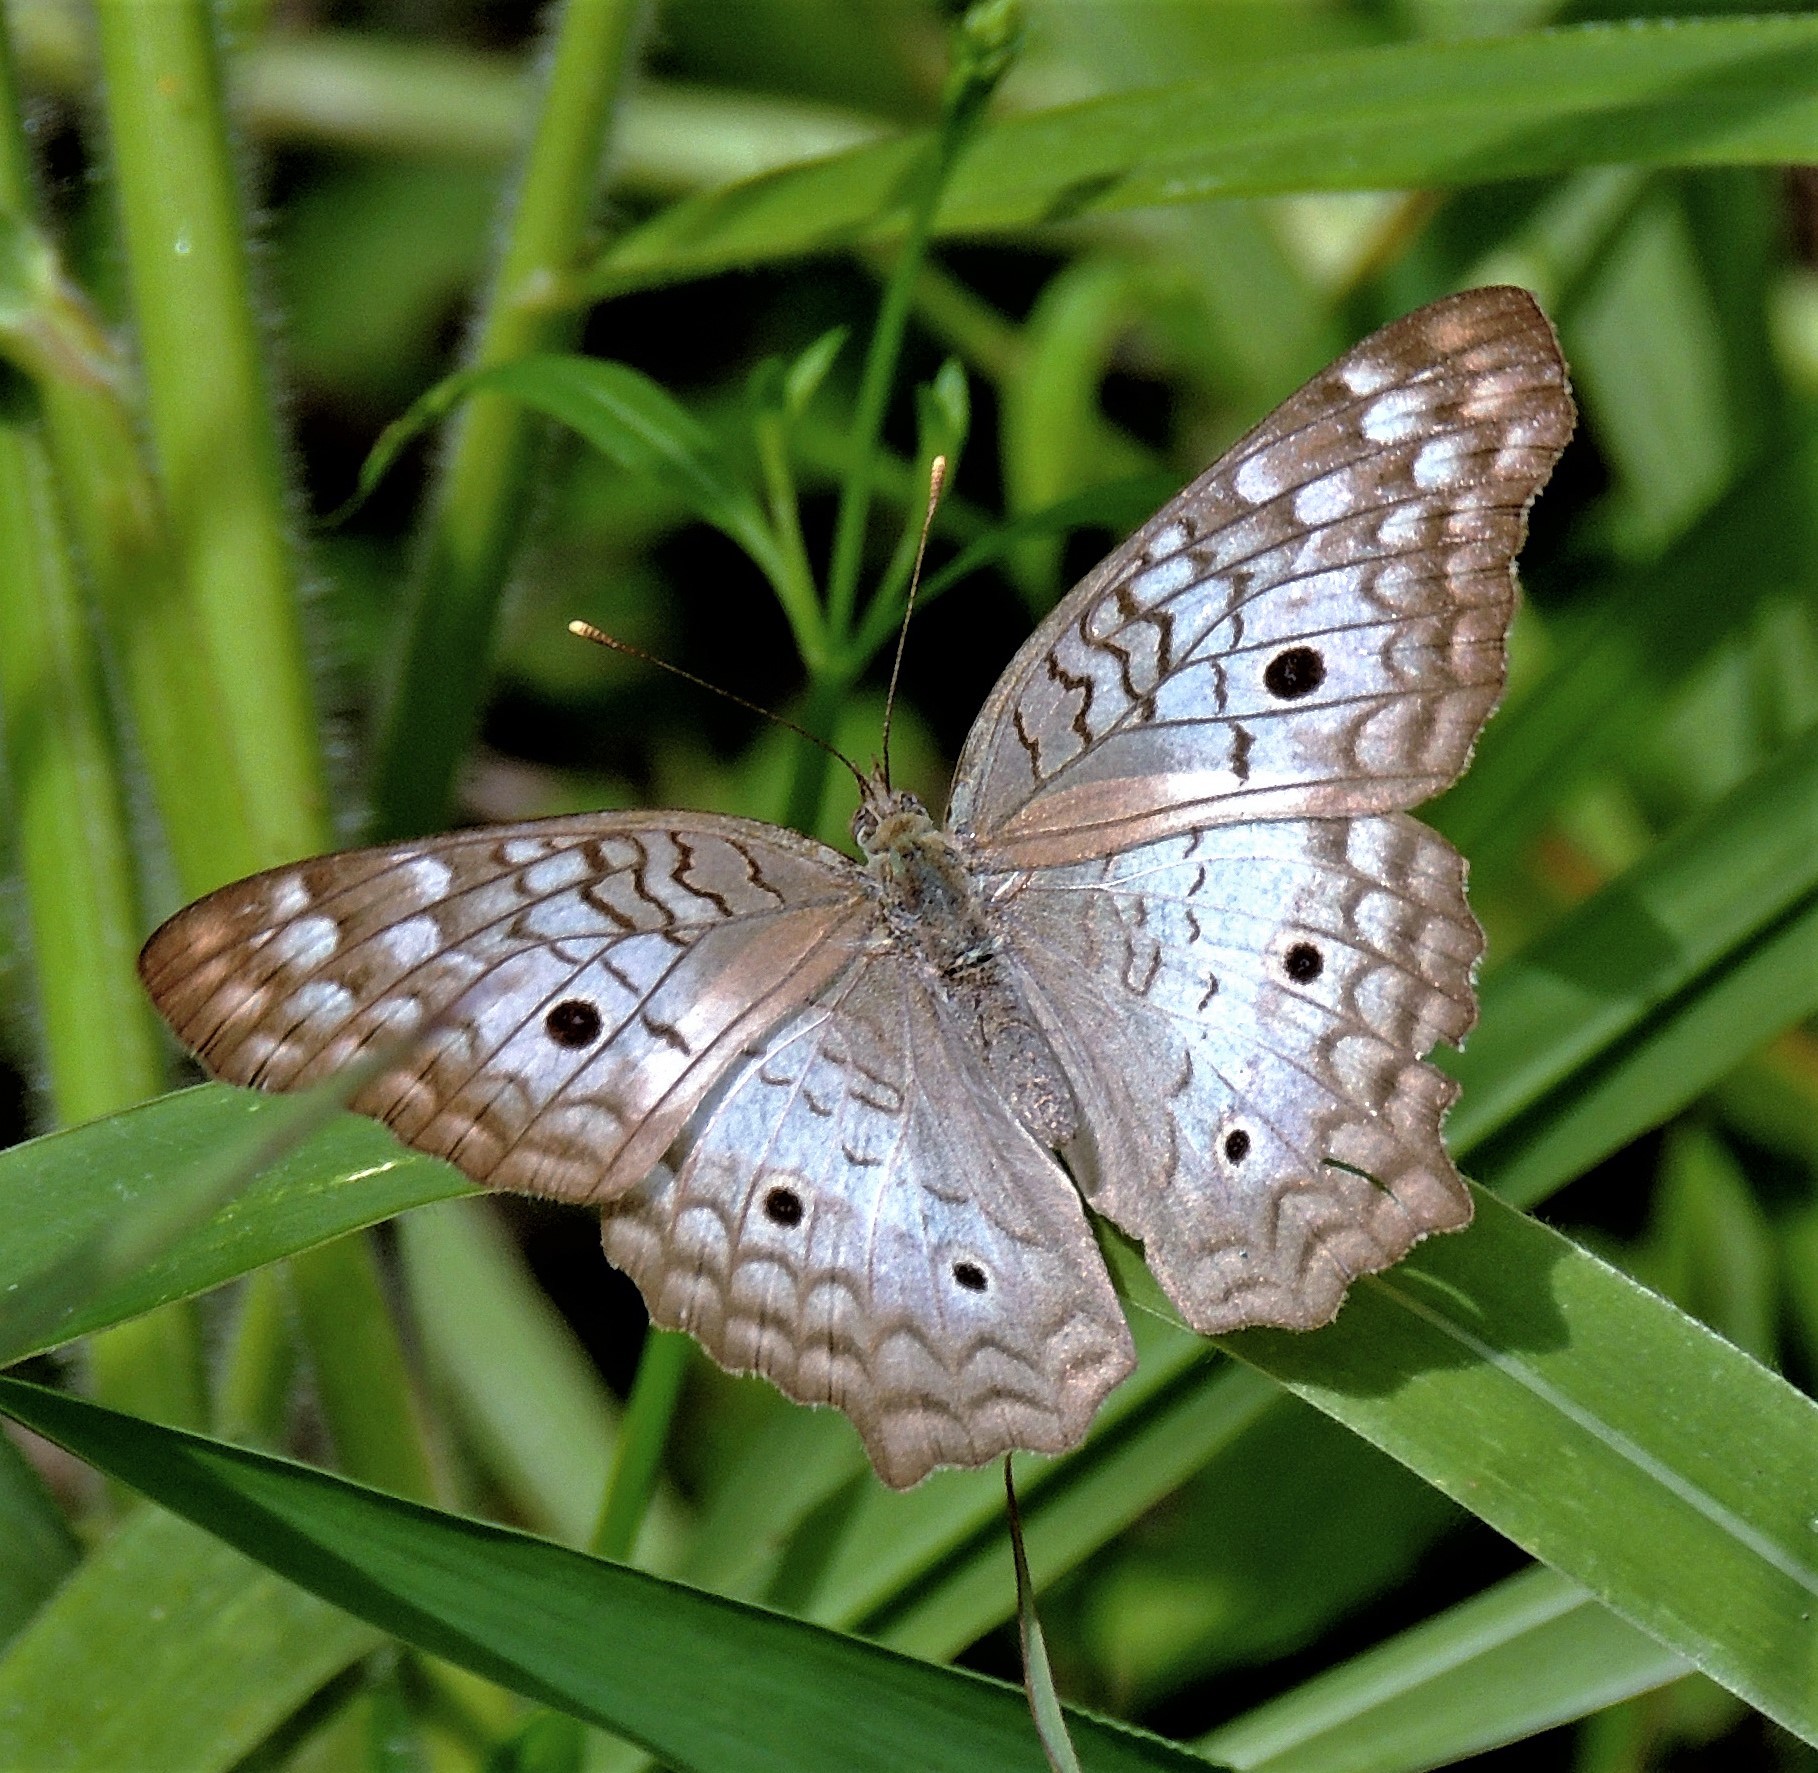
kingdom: Animalia
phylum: Arthropoda
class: Insecta
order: Lepidoptera
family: Nymphalidae
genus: Anartia
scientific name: Anartia jatrophae
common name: White peacock
